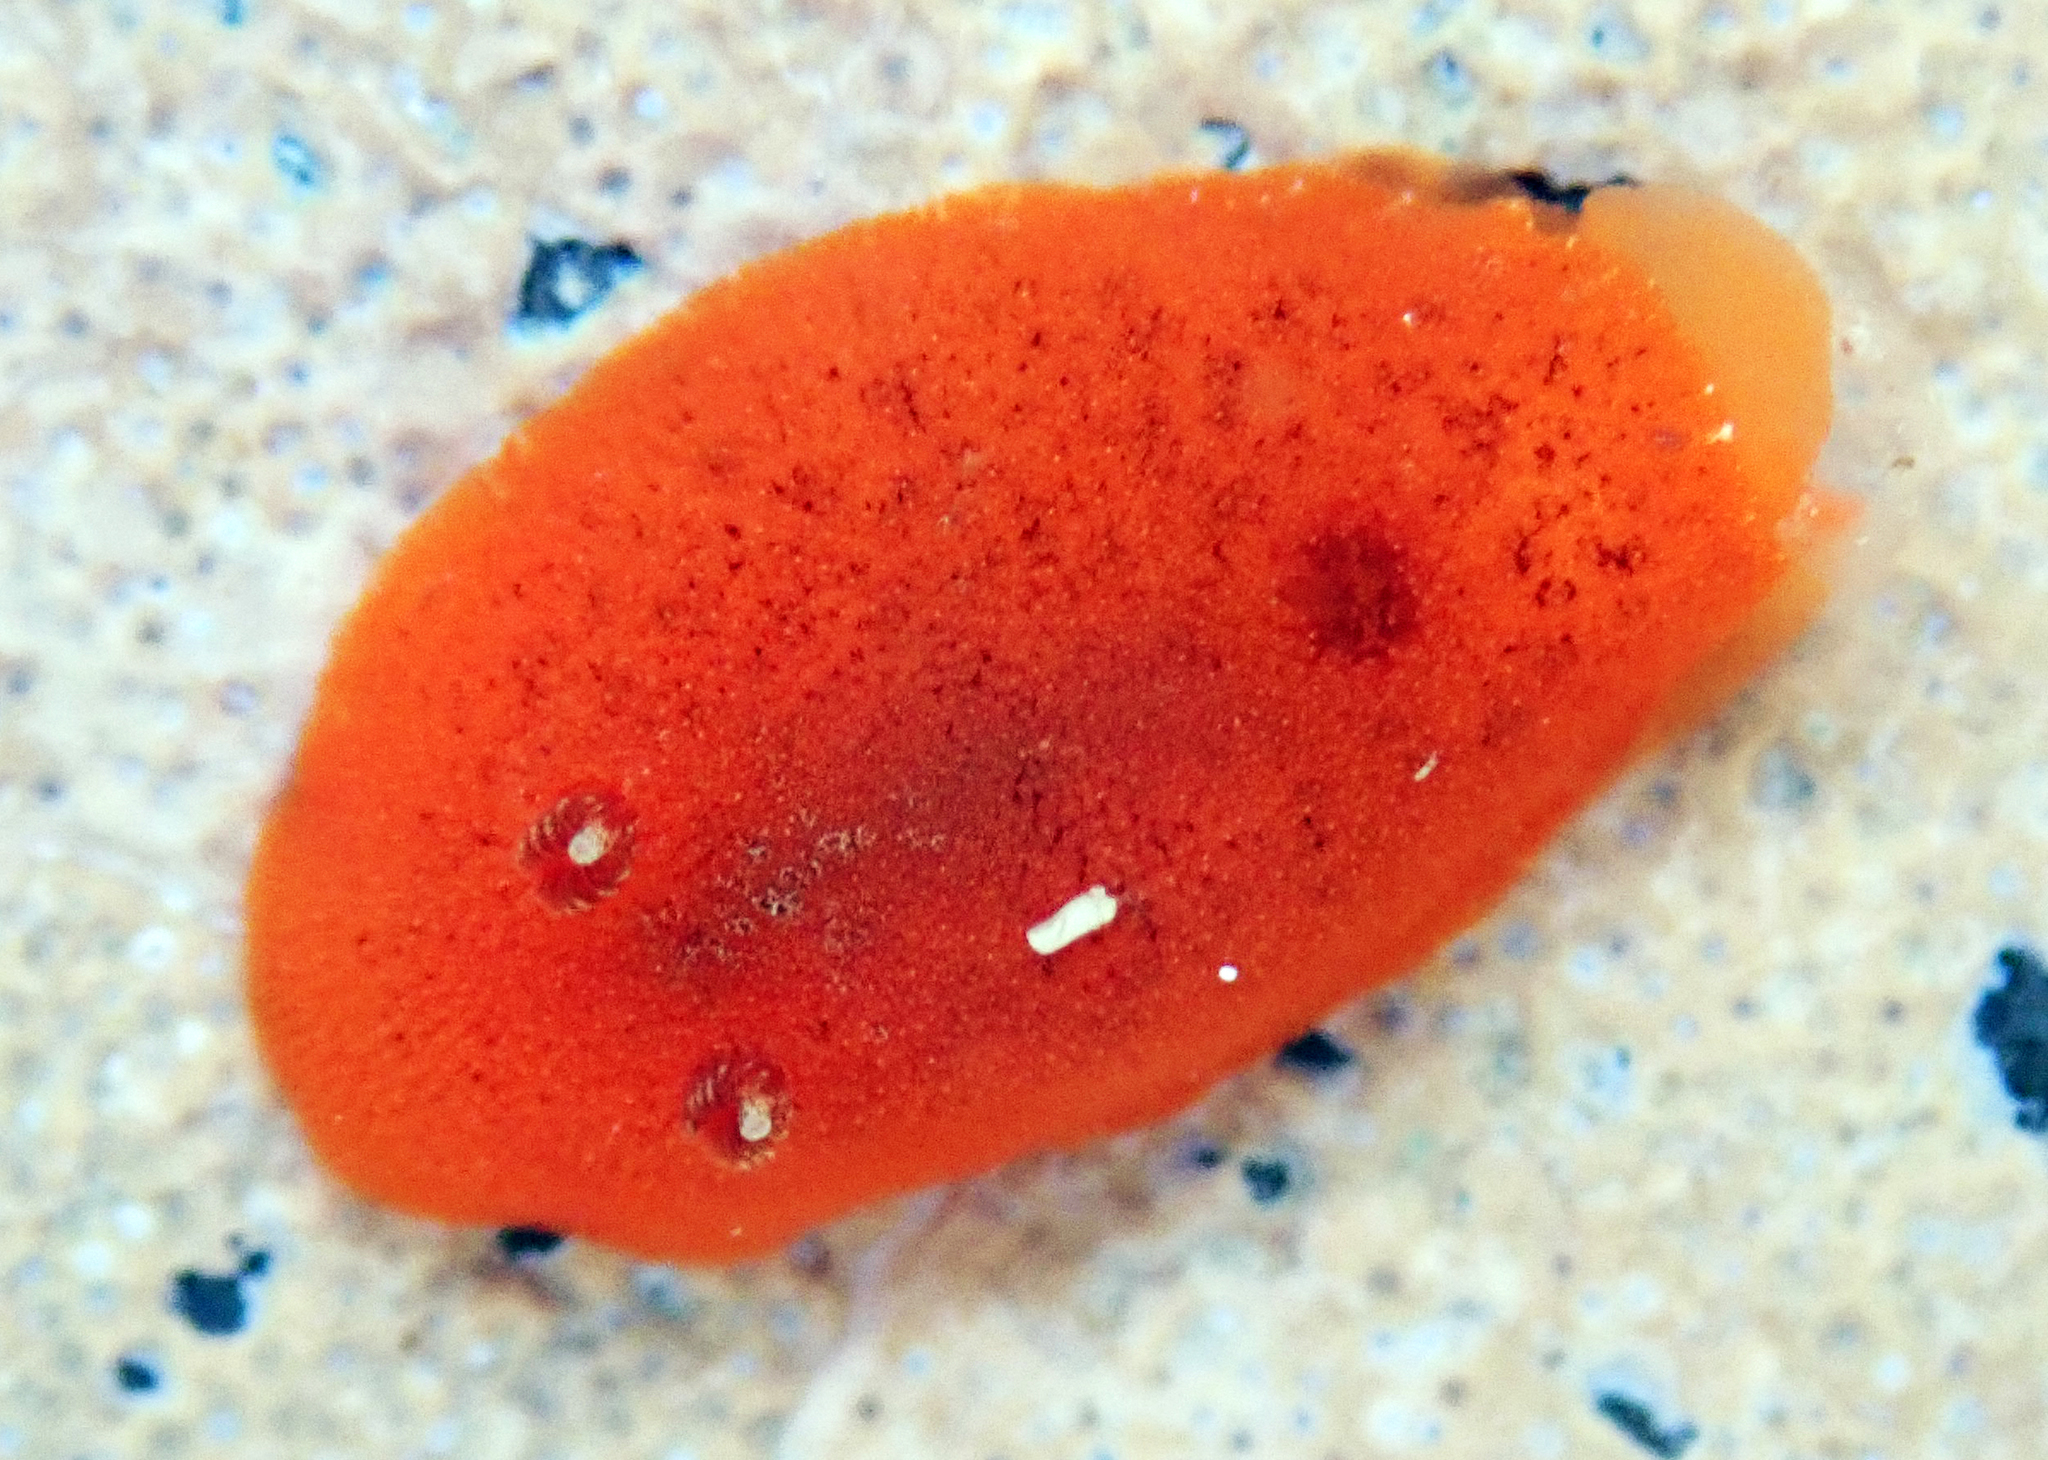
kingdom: Animalia
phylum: Mollusca
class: Gastropoda
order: Nudibranchia
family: Discodorididae
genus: Rostanga
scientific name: Rostanga muscula
